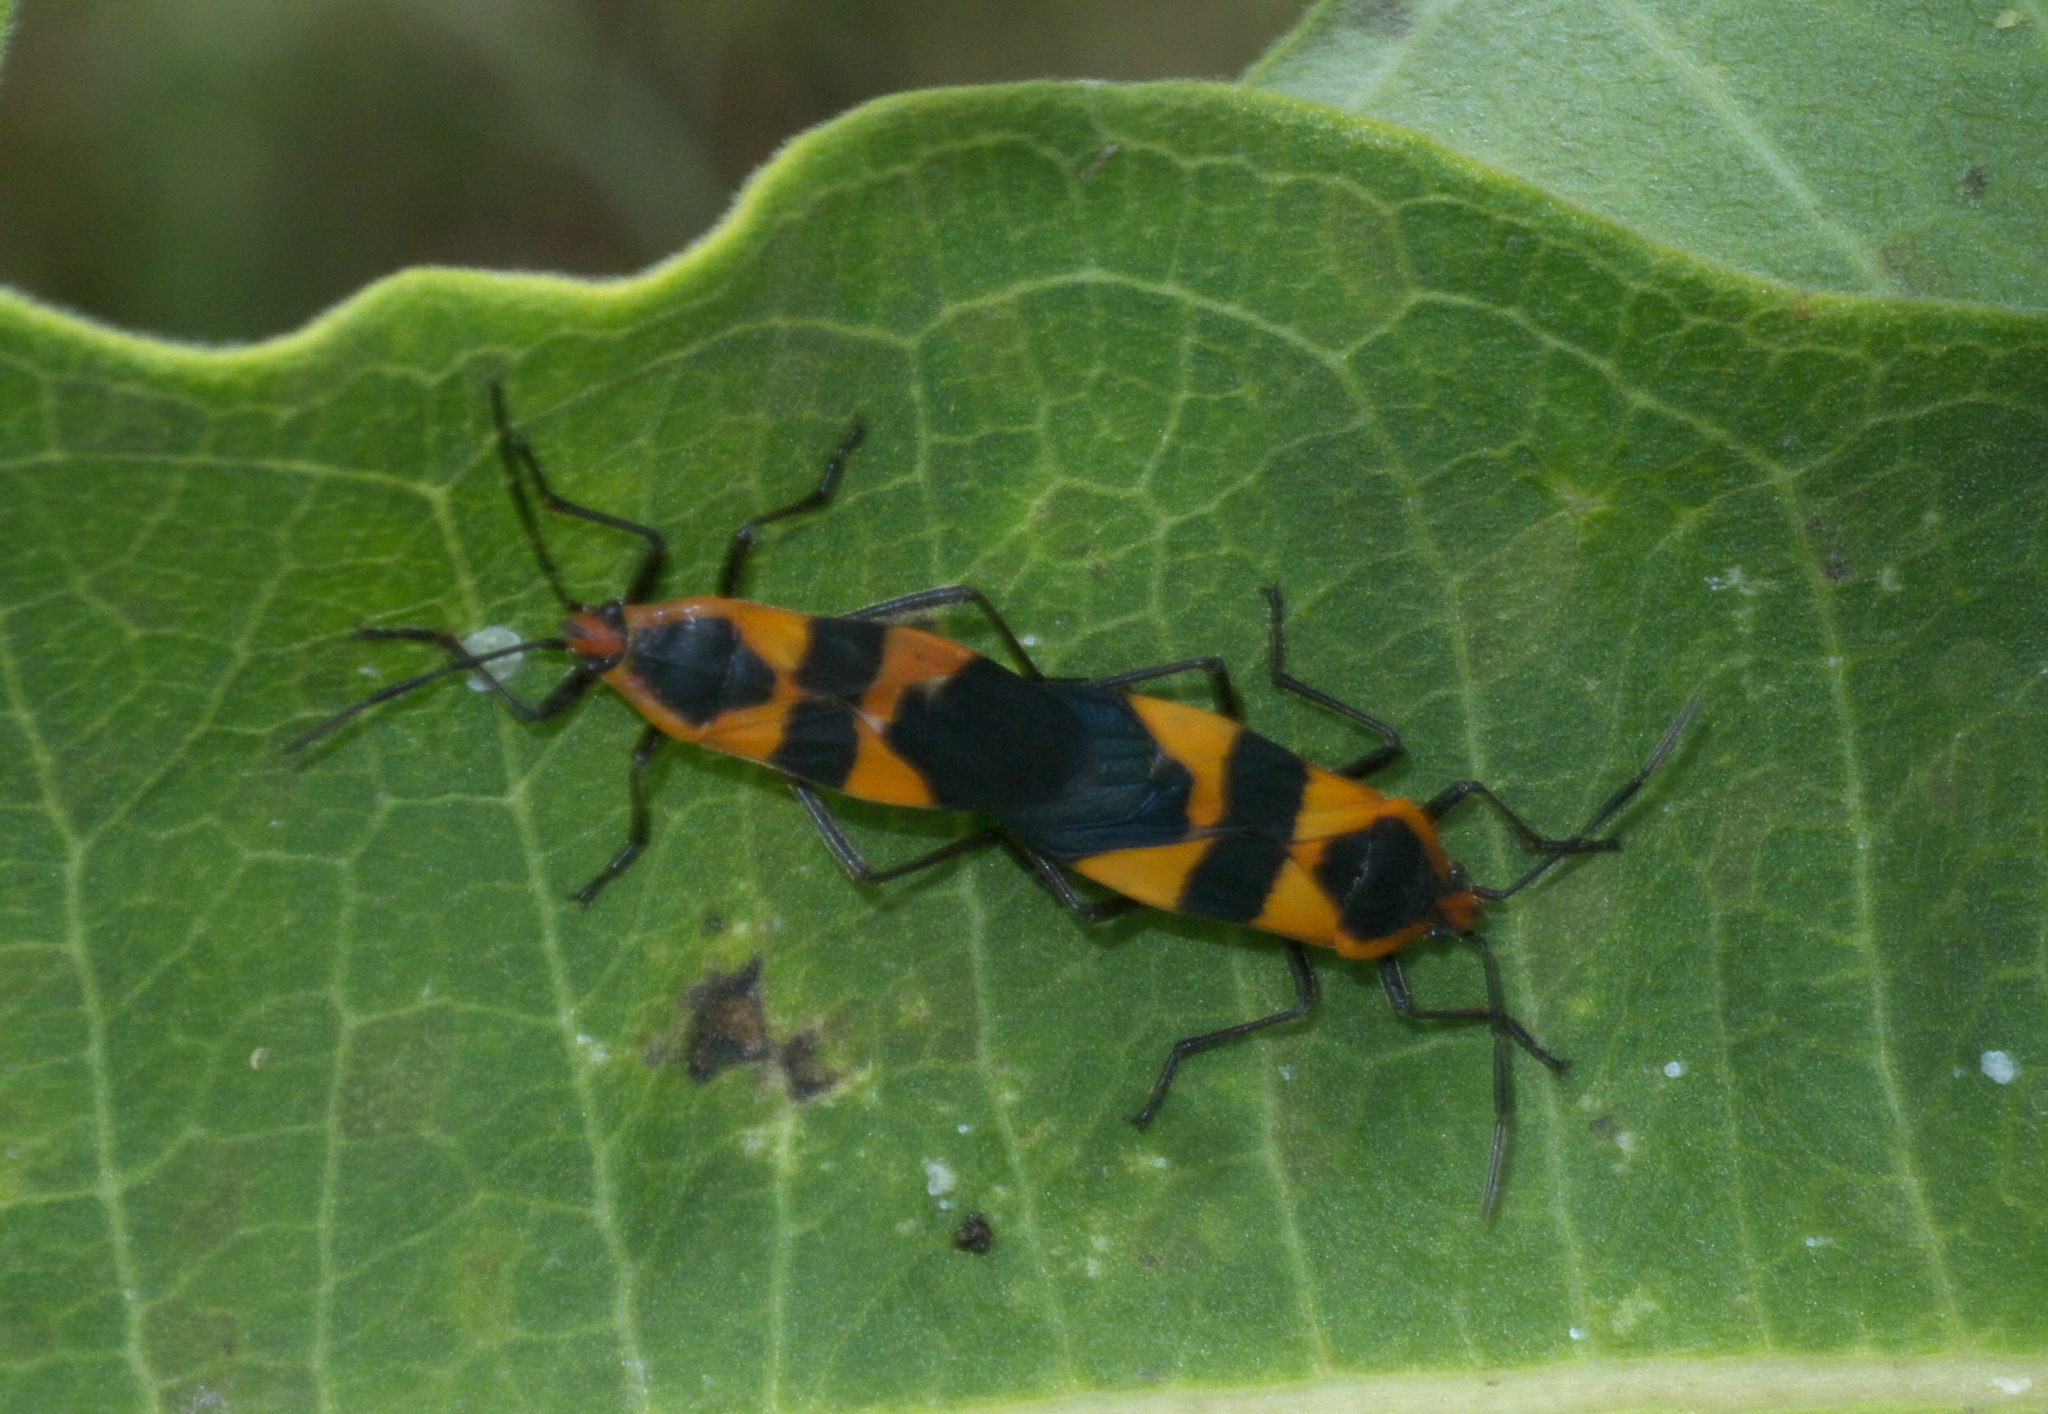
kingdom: Animalia
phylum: Arthropoda
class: Insecta
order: Hemiptera
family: Lygaeidae
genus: Oncopeltus
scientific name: Oncopeltus fasciatus
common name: Large milkweed bug
